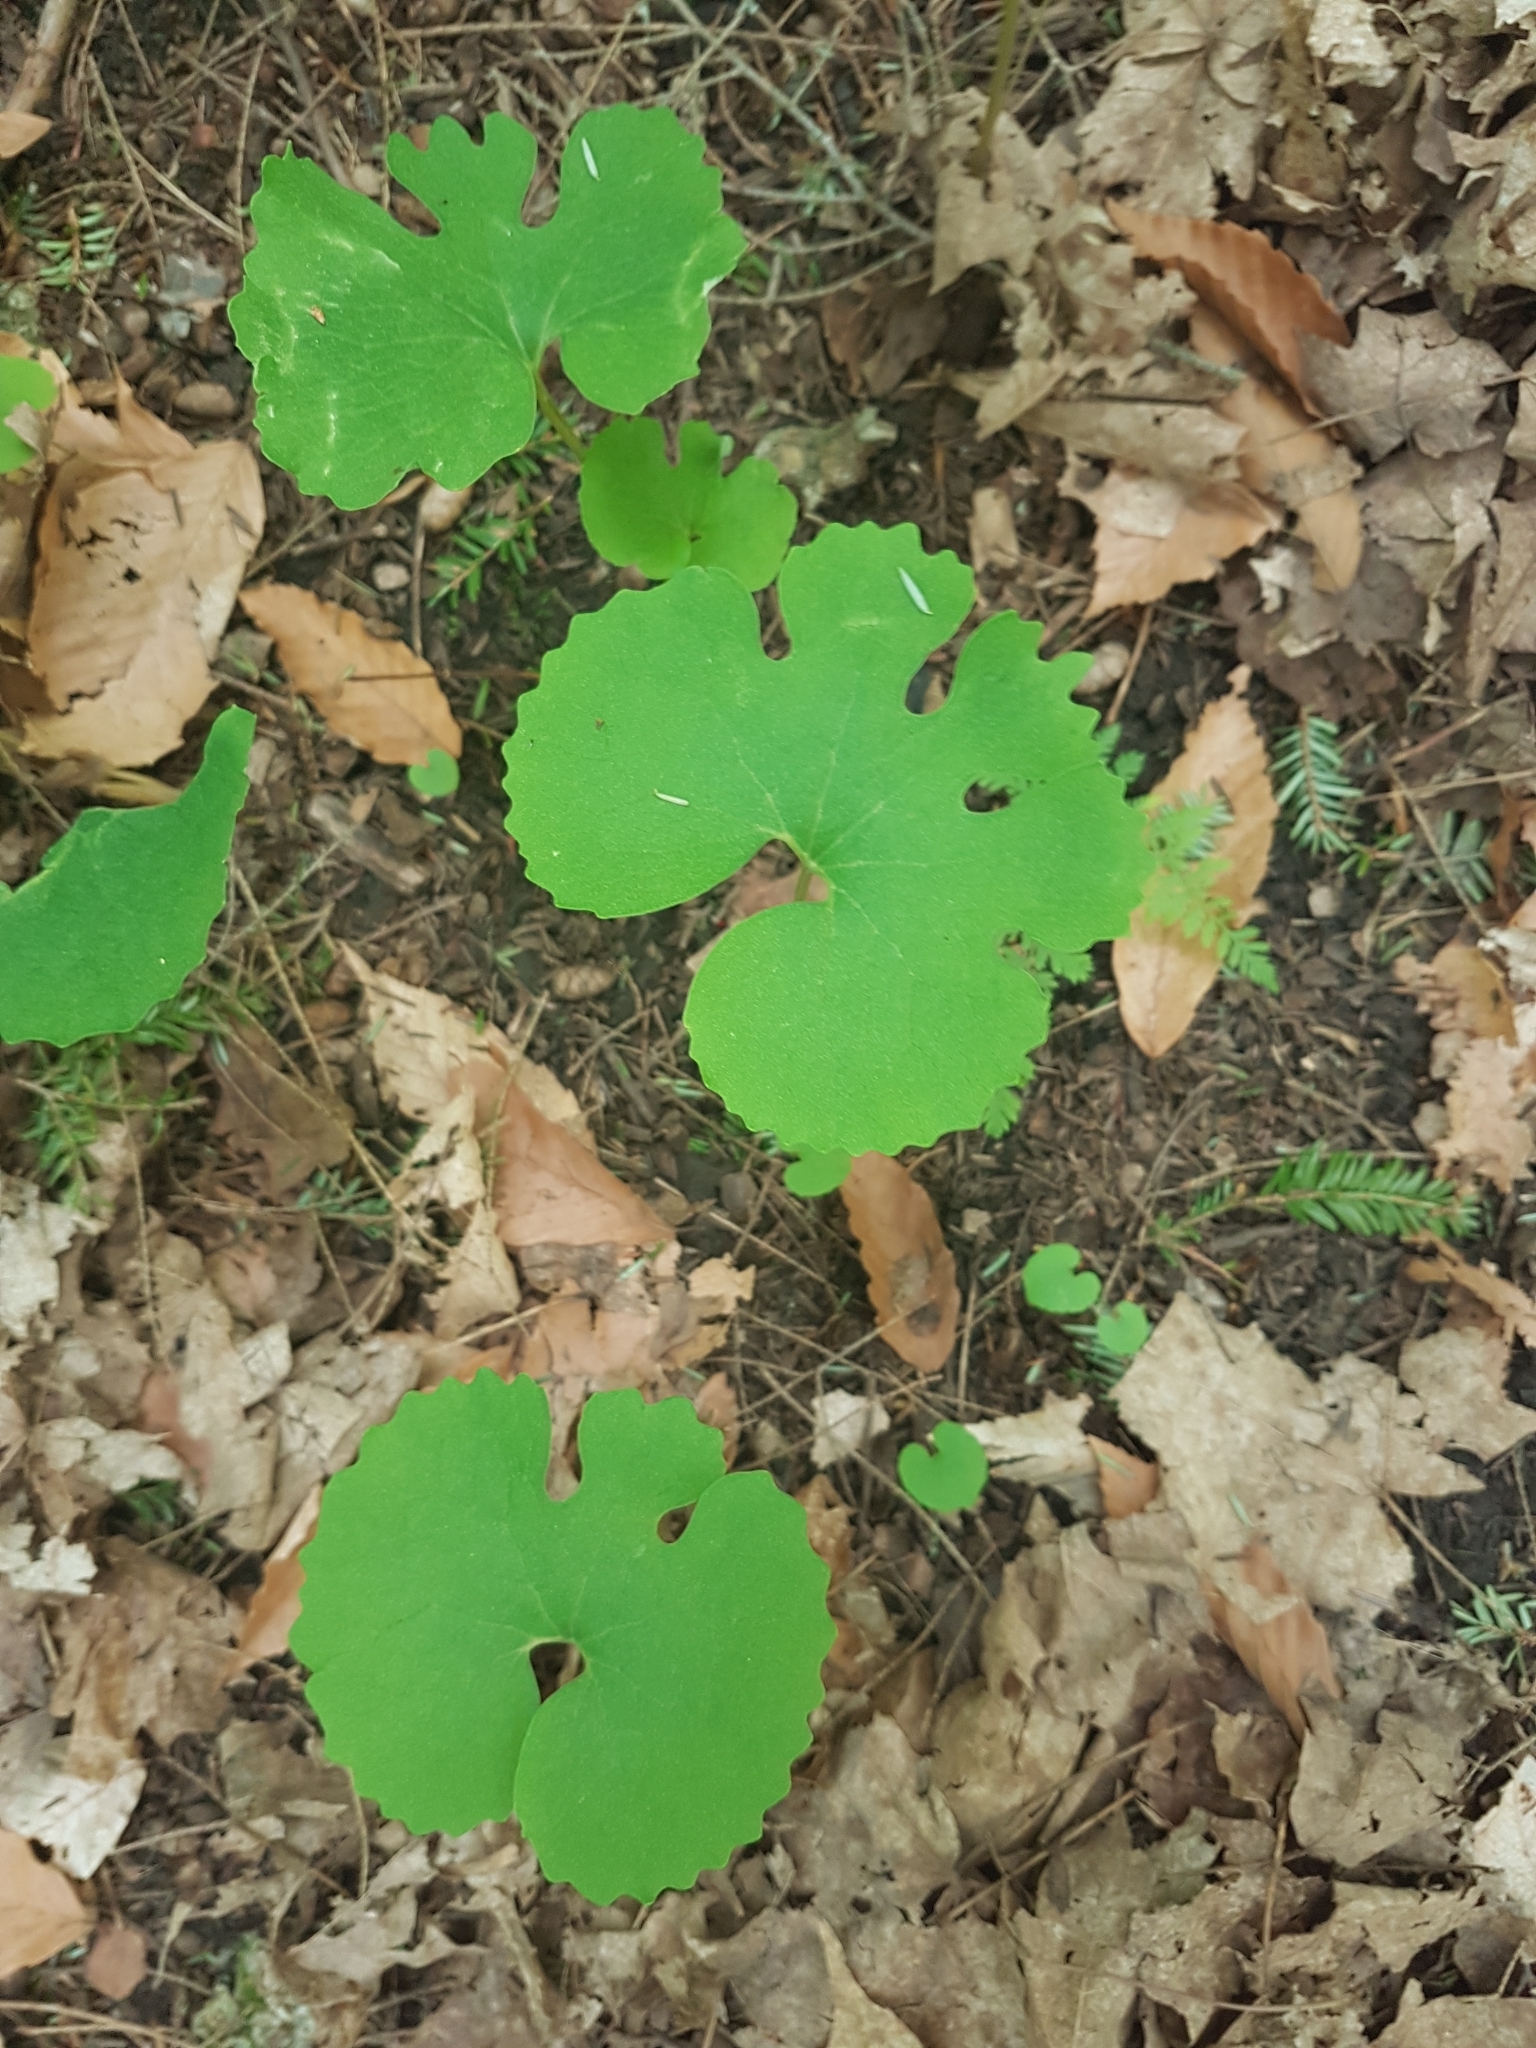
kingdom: Plantae
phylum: Tracheophyta
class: Magnoliopsida
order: Ranunculales
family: Papaveraceae
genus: Sanguinaria
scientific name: Sanguinaria canadensis
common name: Bloodroot
